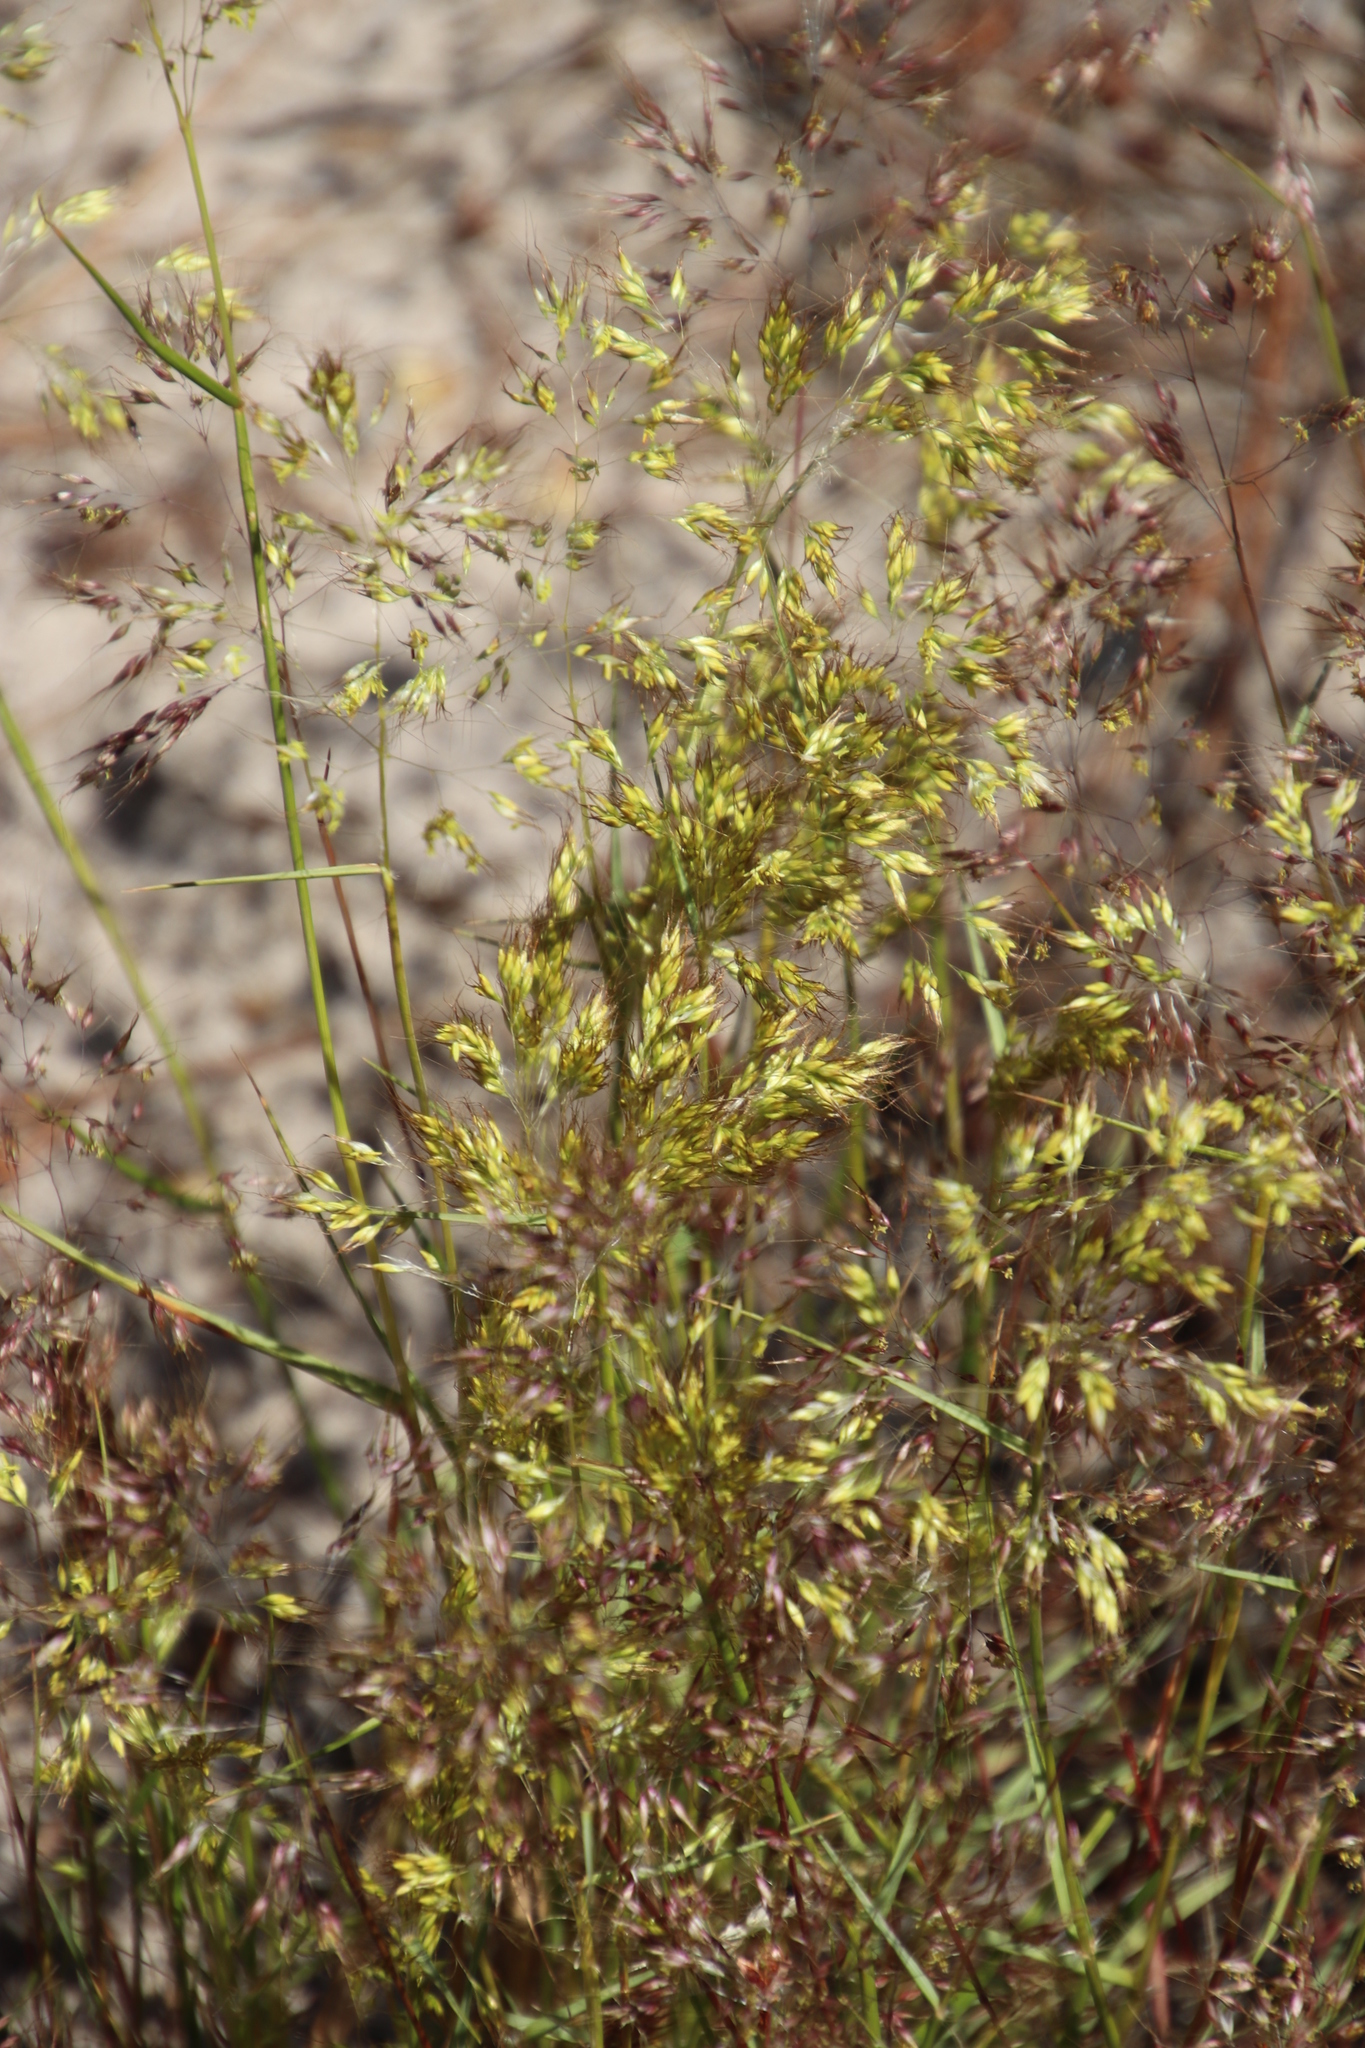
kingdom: Plantae
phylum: Tracheophyta
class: Liliopsida
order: Poales
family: Poaceae
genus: Pentameris
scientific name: Pentameris pallida
